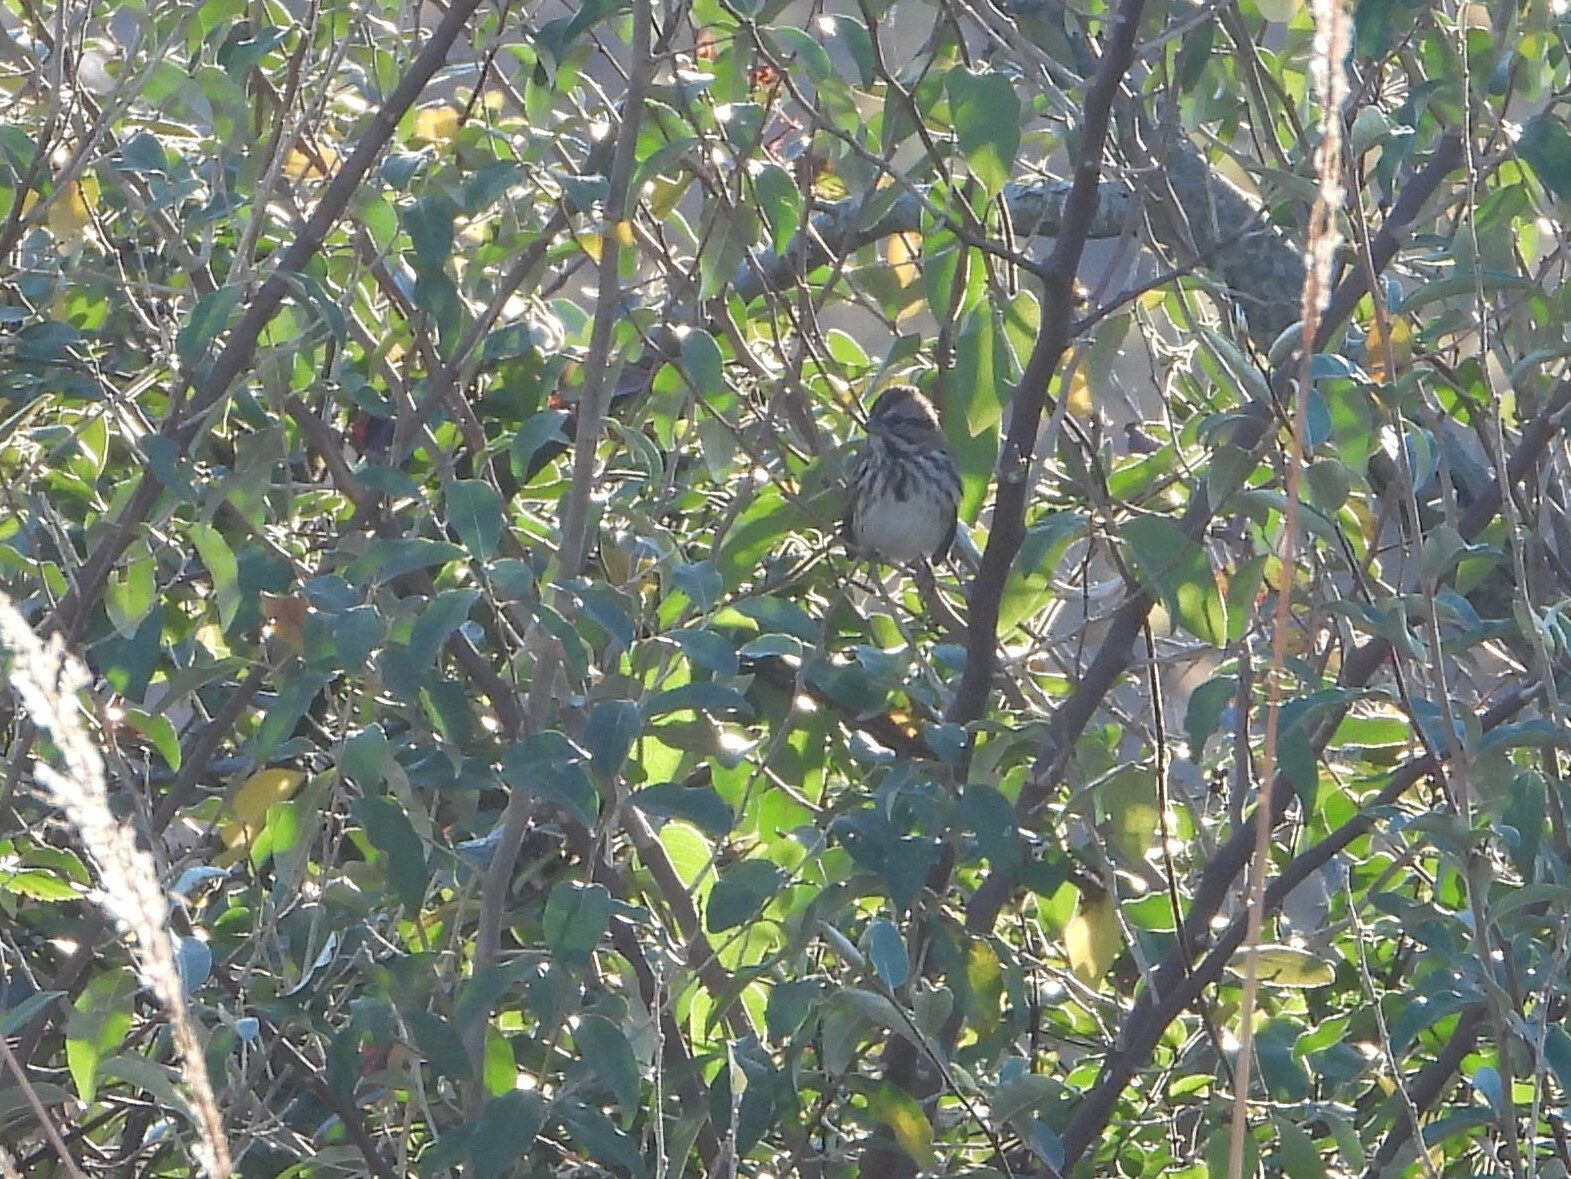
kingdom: Animalia
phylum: Chordata
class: Aves
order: Passeriformes
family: Passerellidae
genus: Melospiza
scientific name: Melospiza melodia
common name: Song sparrow
